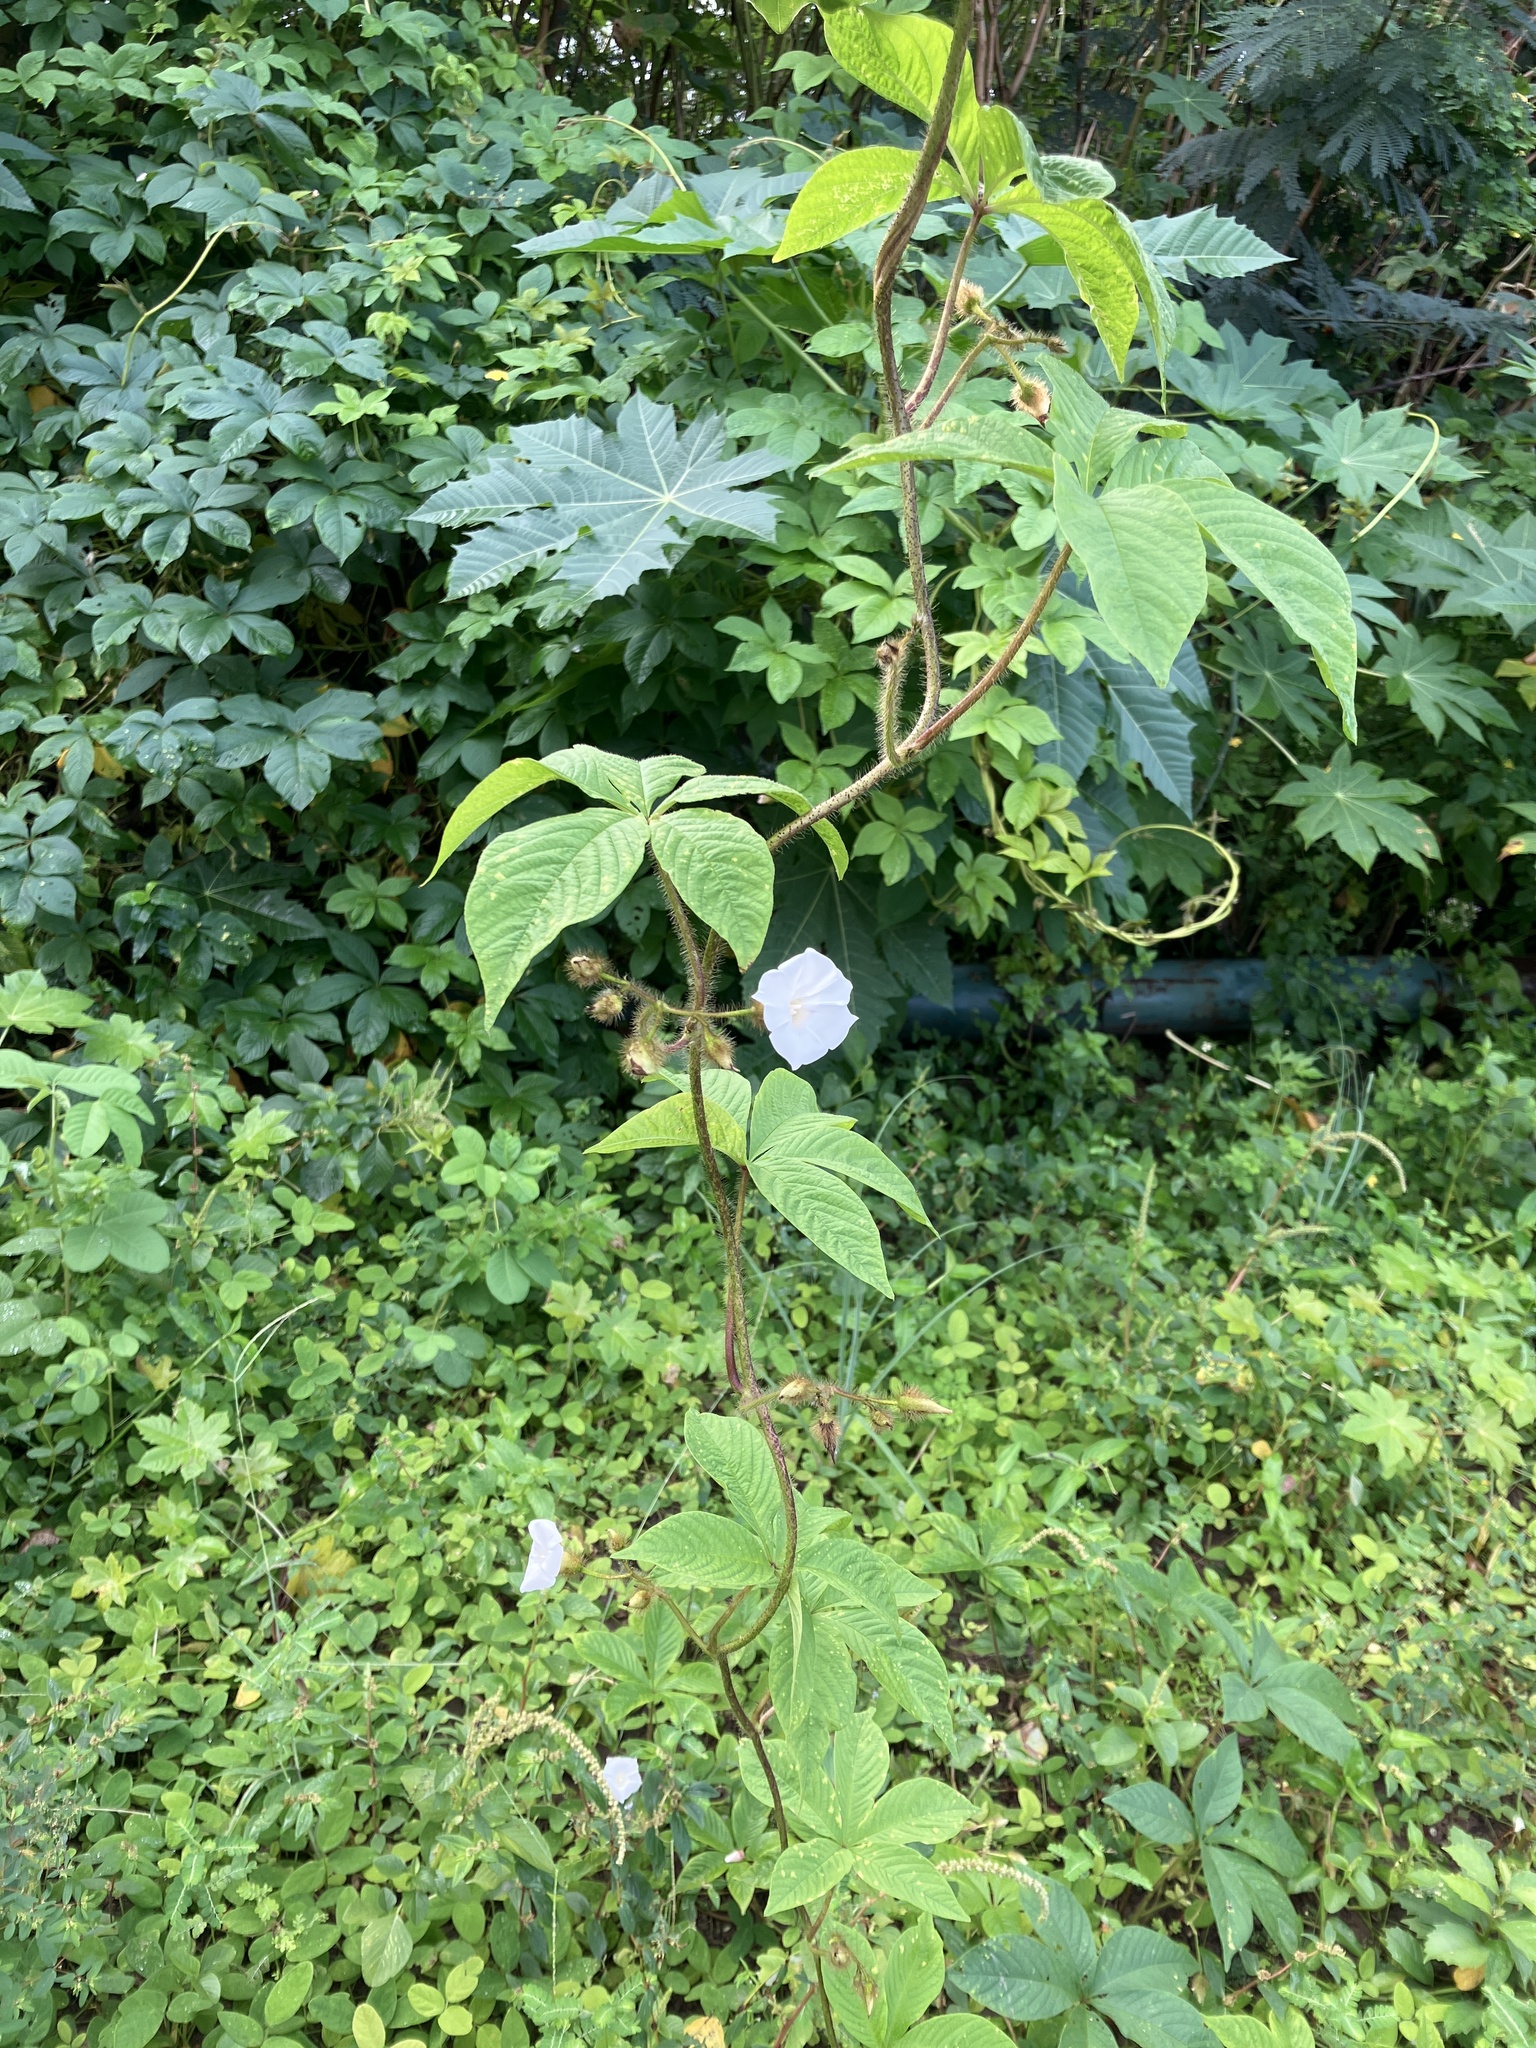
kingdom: Plantae
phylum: Tracheophyta
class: Magnoliopsida
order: Solanales
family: Convolvulaceae
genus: Distimake
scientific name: Distimake aegyptius
